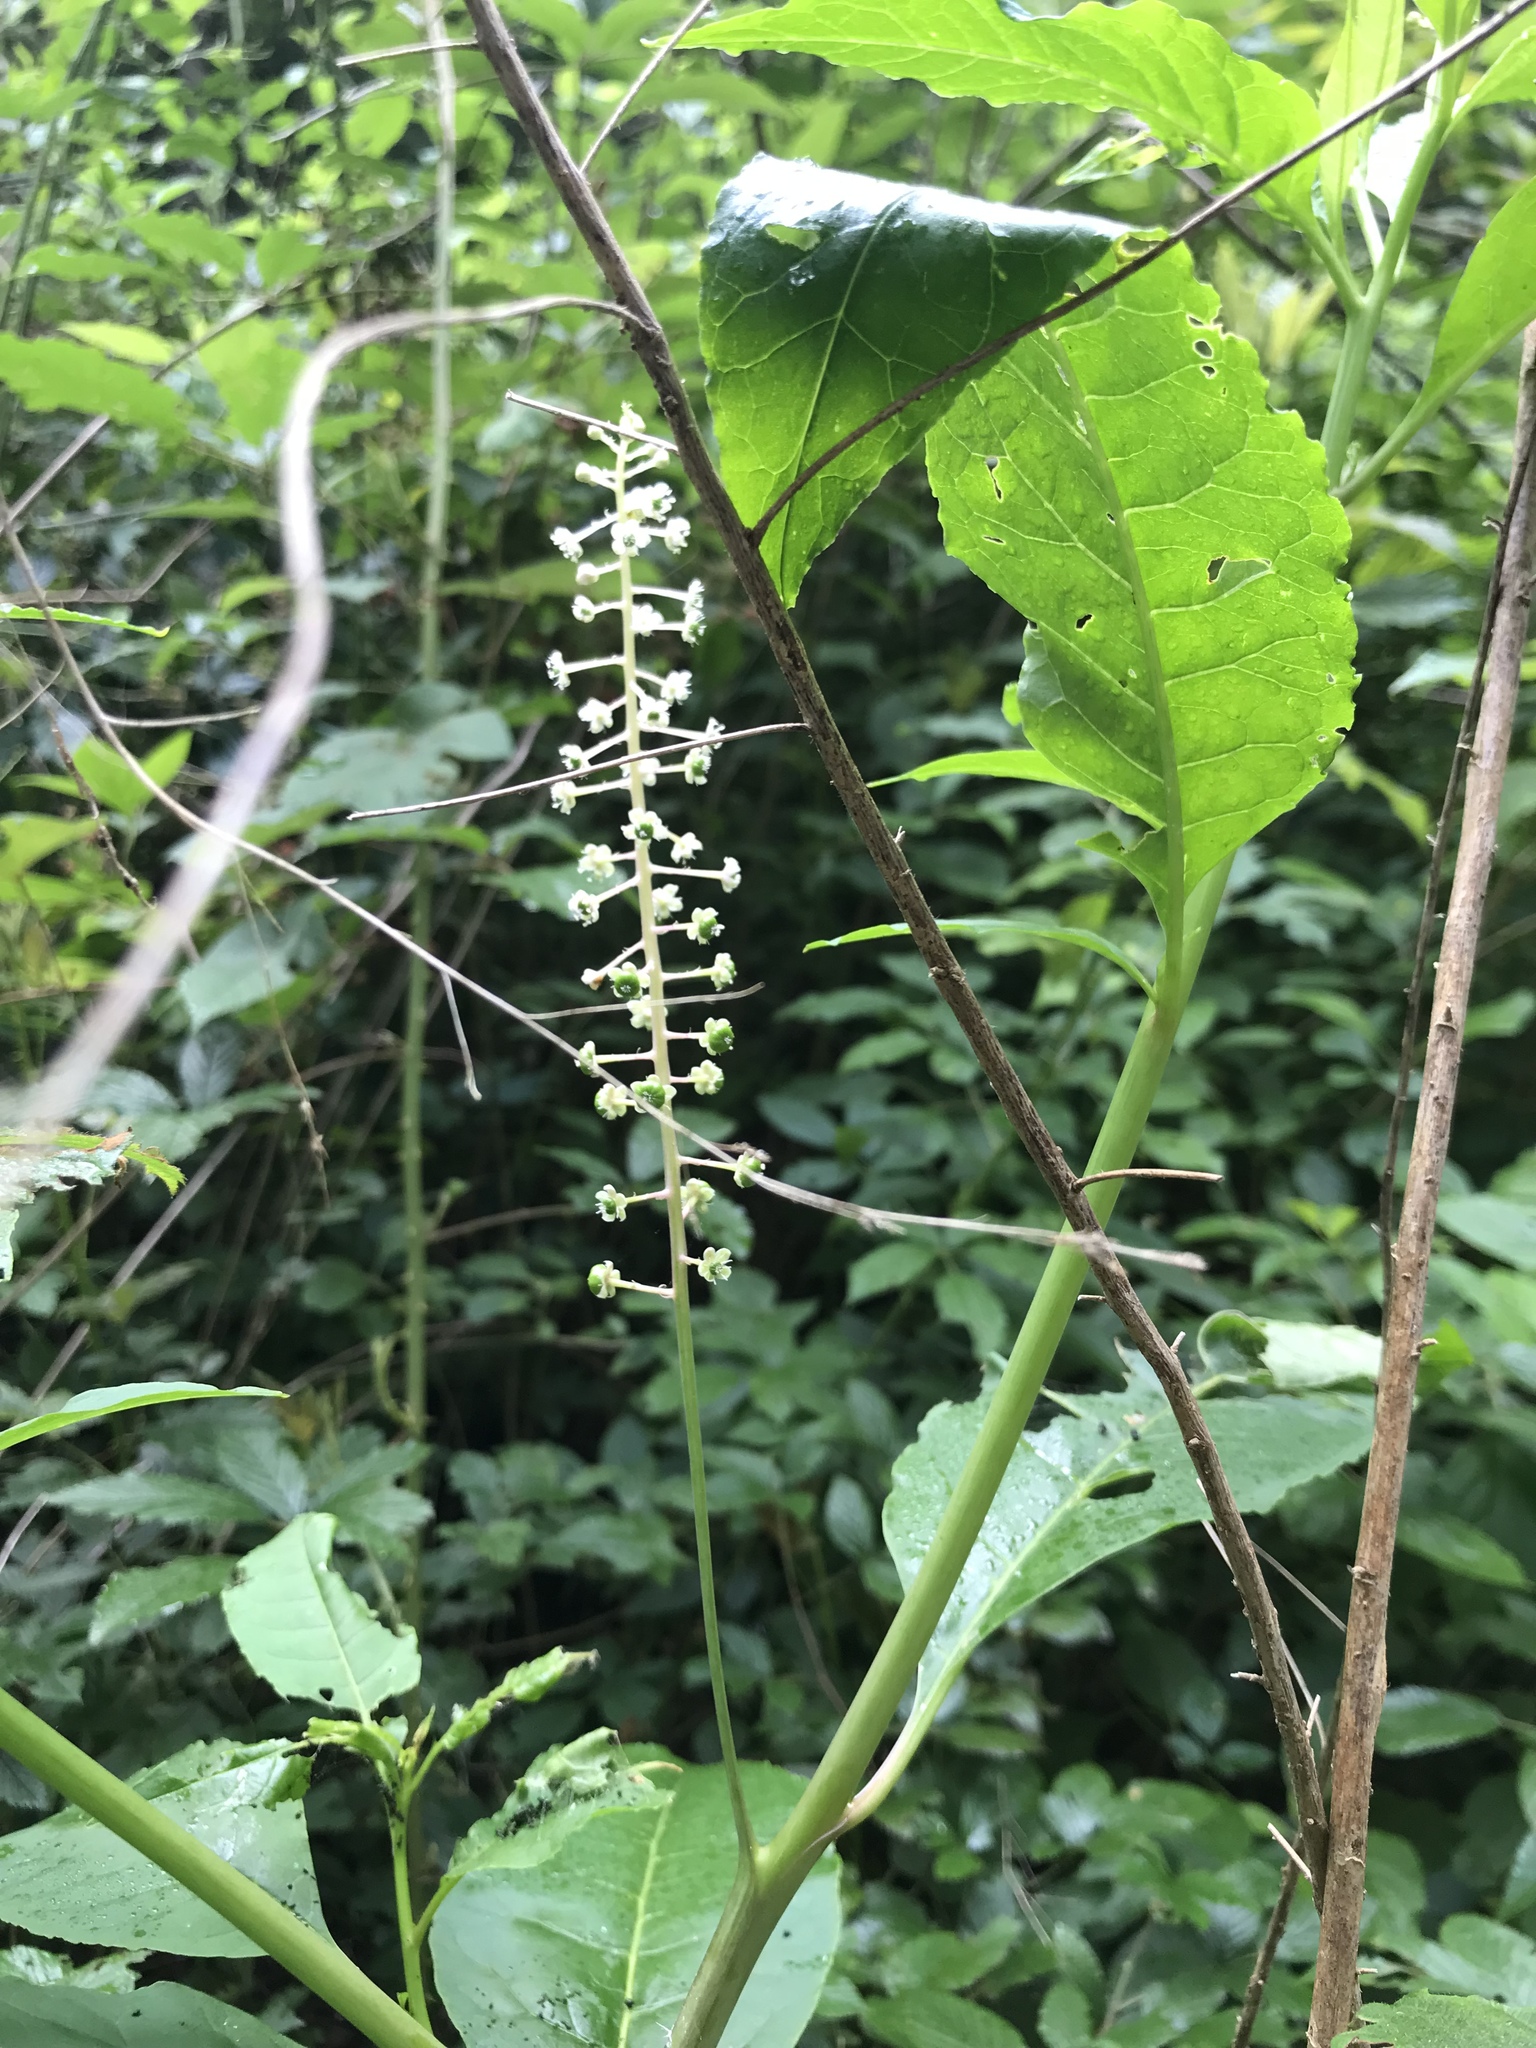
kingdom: Plantae
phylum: Tracheophyta
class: Magnoliopsida
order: Caryophyllales
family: Phytolaccaceae
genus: Phytolacca
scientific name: Phytolacca americana
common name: American pokeweed
